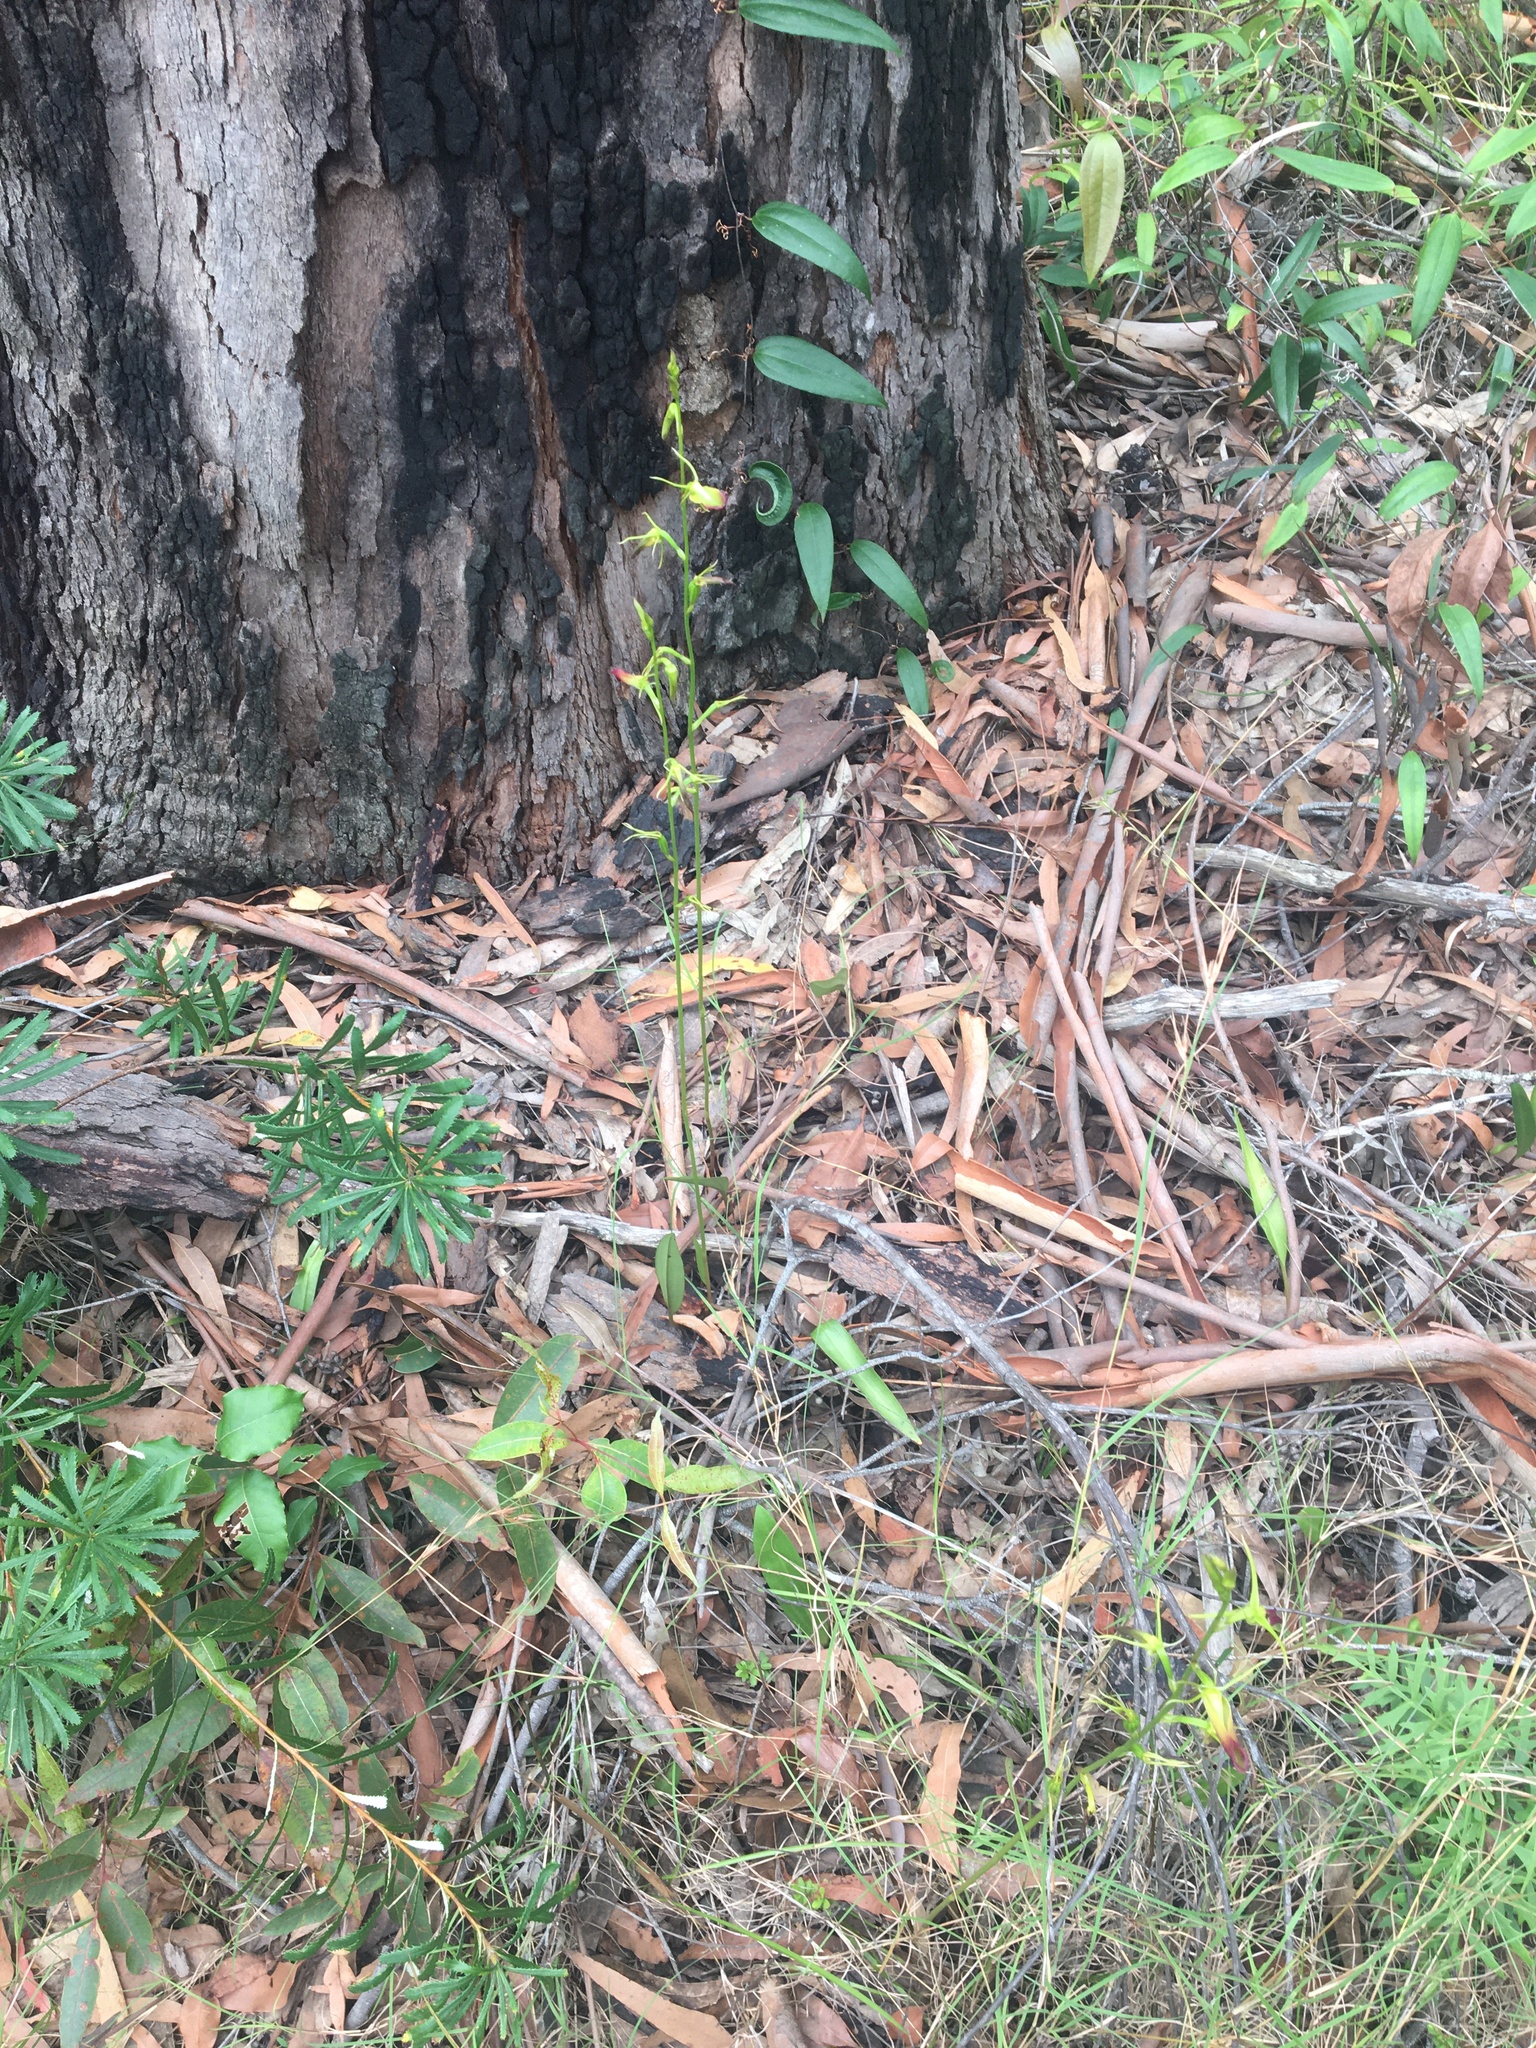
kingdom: Plantae
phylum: Tracheophyta
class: Liliopsida
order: Asparagales
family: Orchidaceae
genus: Cryptostylis
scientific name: Cryptostylis subulata
